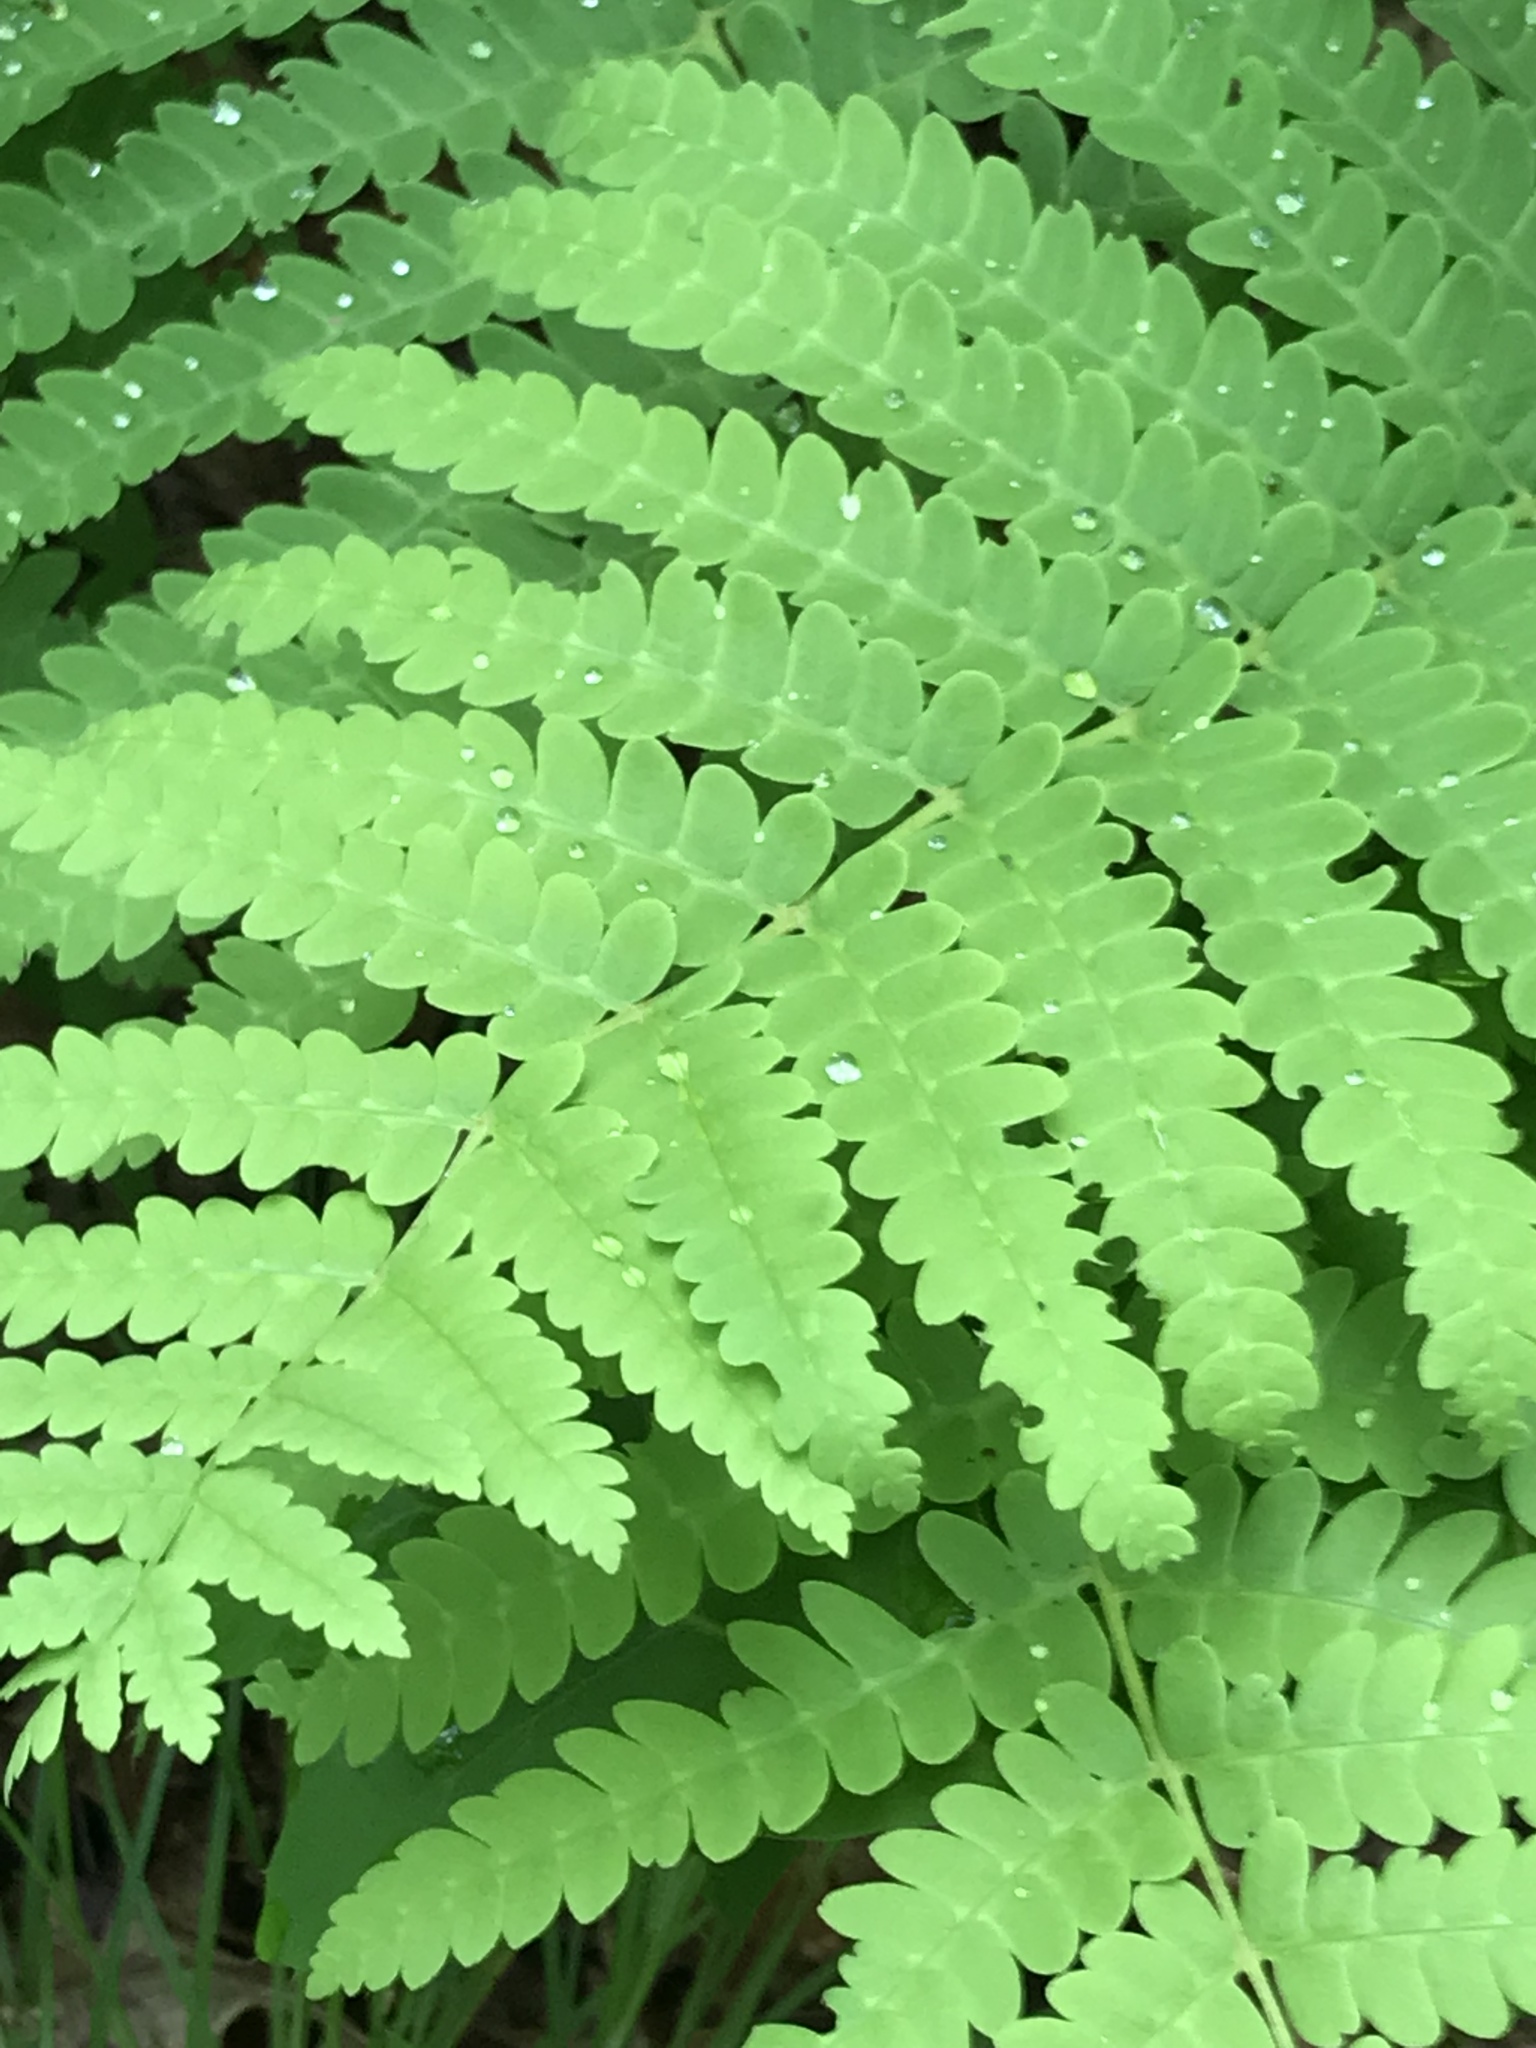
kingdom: Plantae
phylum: Tracheophyta
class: Polypodiopsida
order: Osmundales
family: Osmundaceae
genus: Claytosmunda
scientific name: Claytosmunda claytoniana
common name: Clayton's fern
